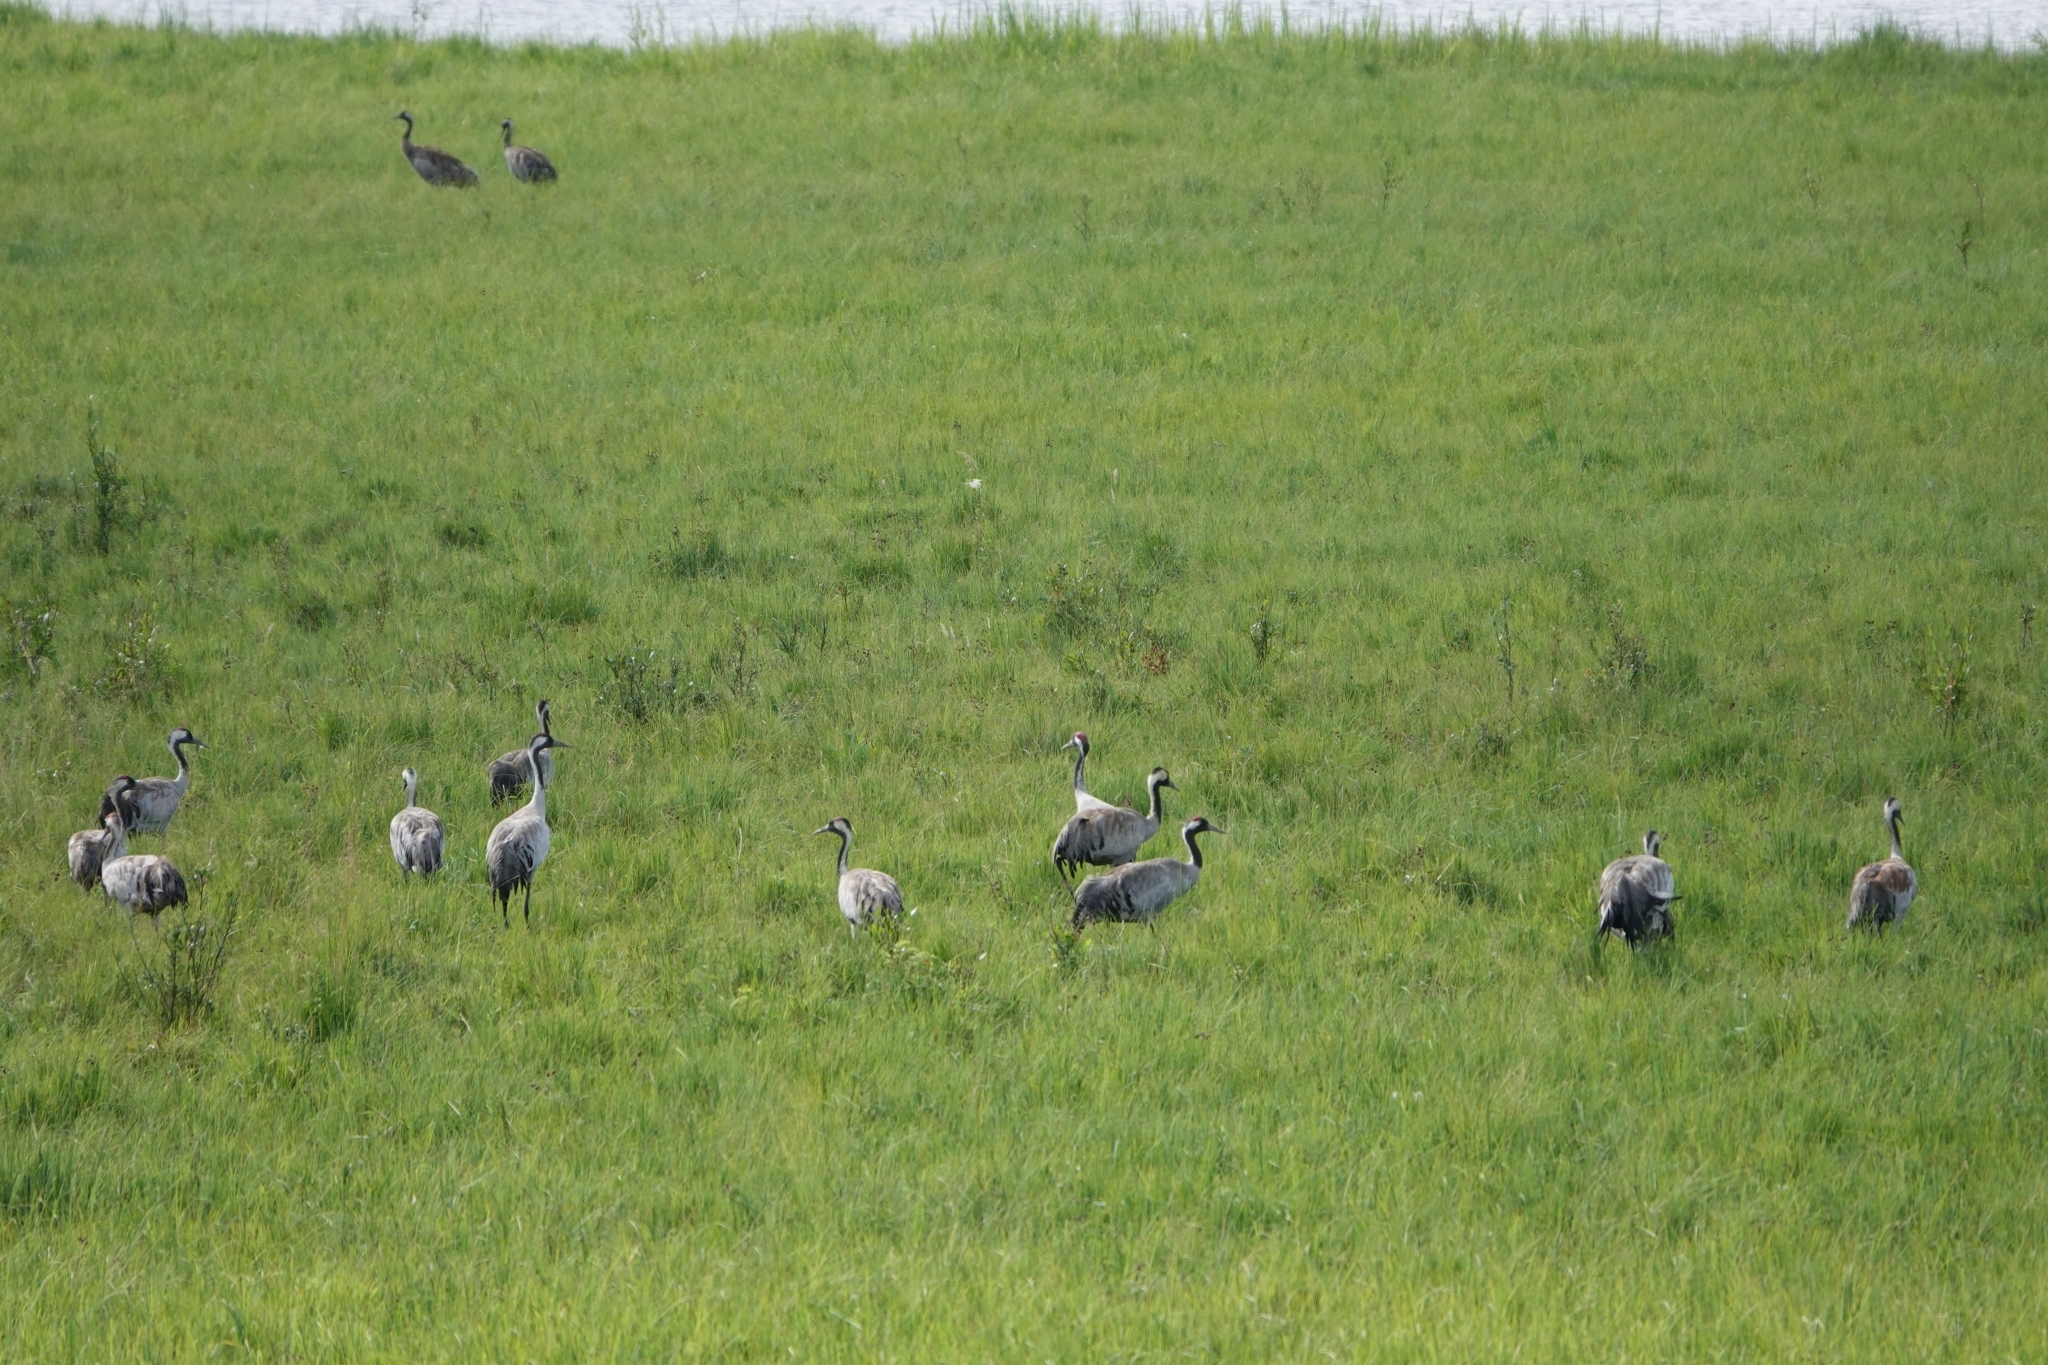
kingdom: Animalia
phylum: Chordata
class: Aves
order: Gruiformes
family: Gruidae
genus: Grus
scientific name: Grus grus
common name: Common crane
